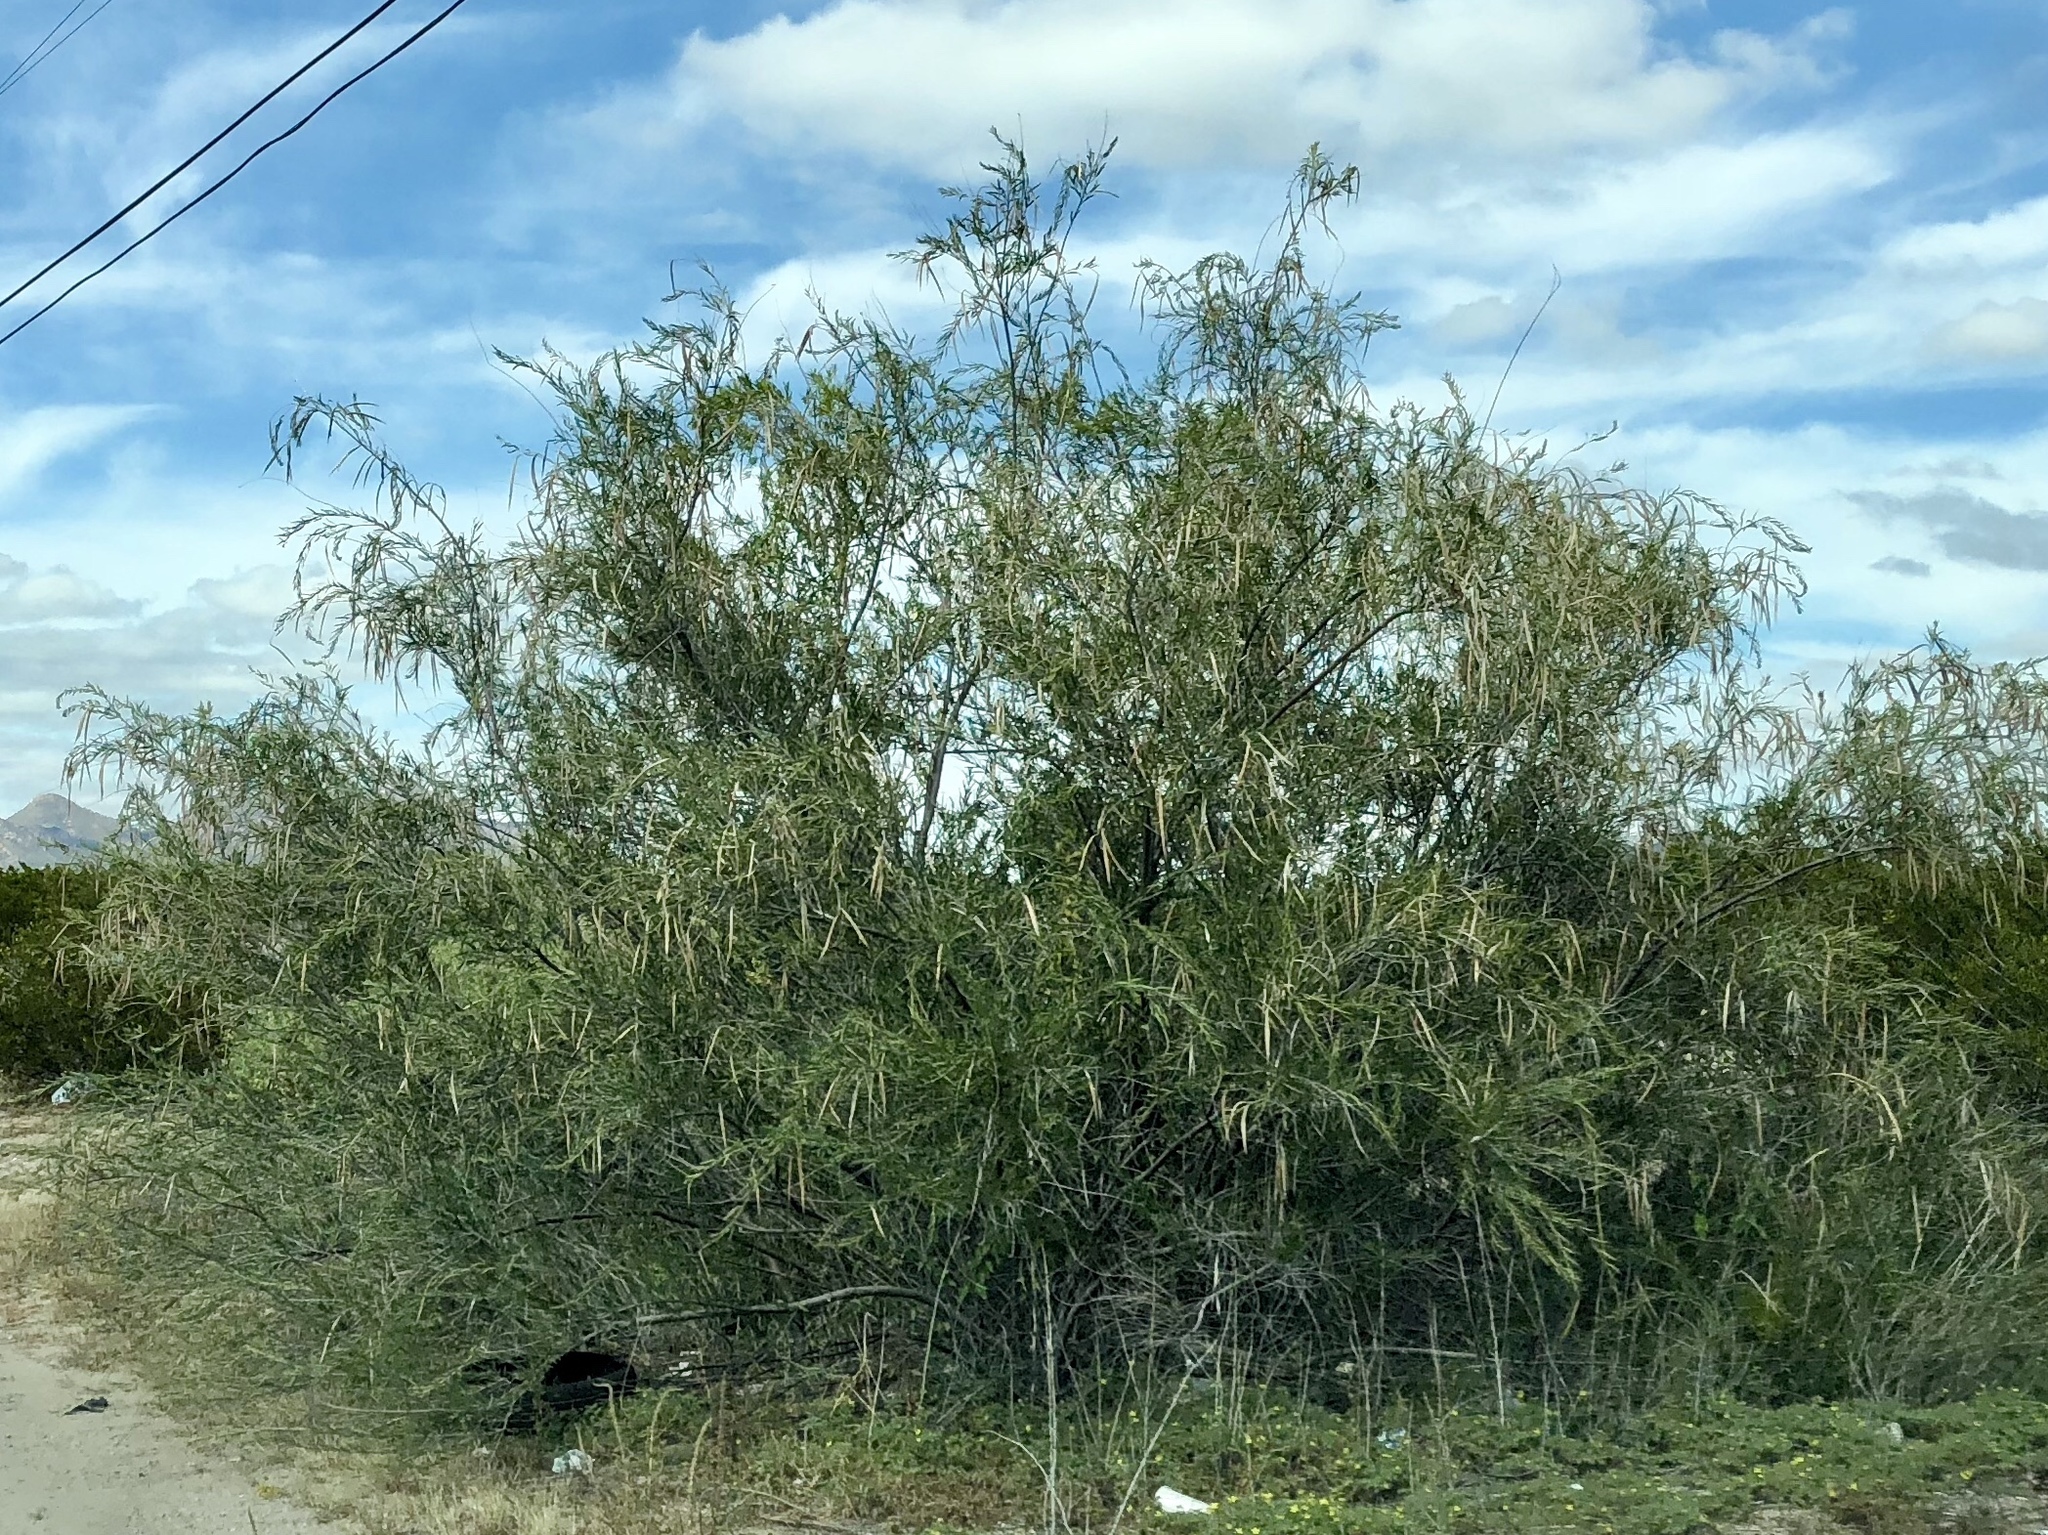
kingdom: Plantae
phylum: Tracheophyta
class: Magnoliopsida
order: Lamiales
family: Bignoniaceae
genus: Chilopsis
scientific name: Chilopsis linearis
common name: Desert-willow
